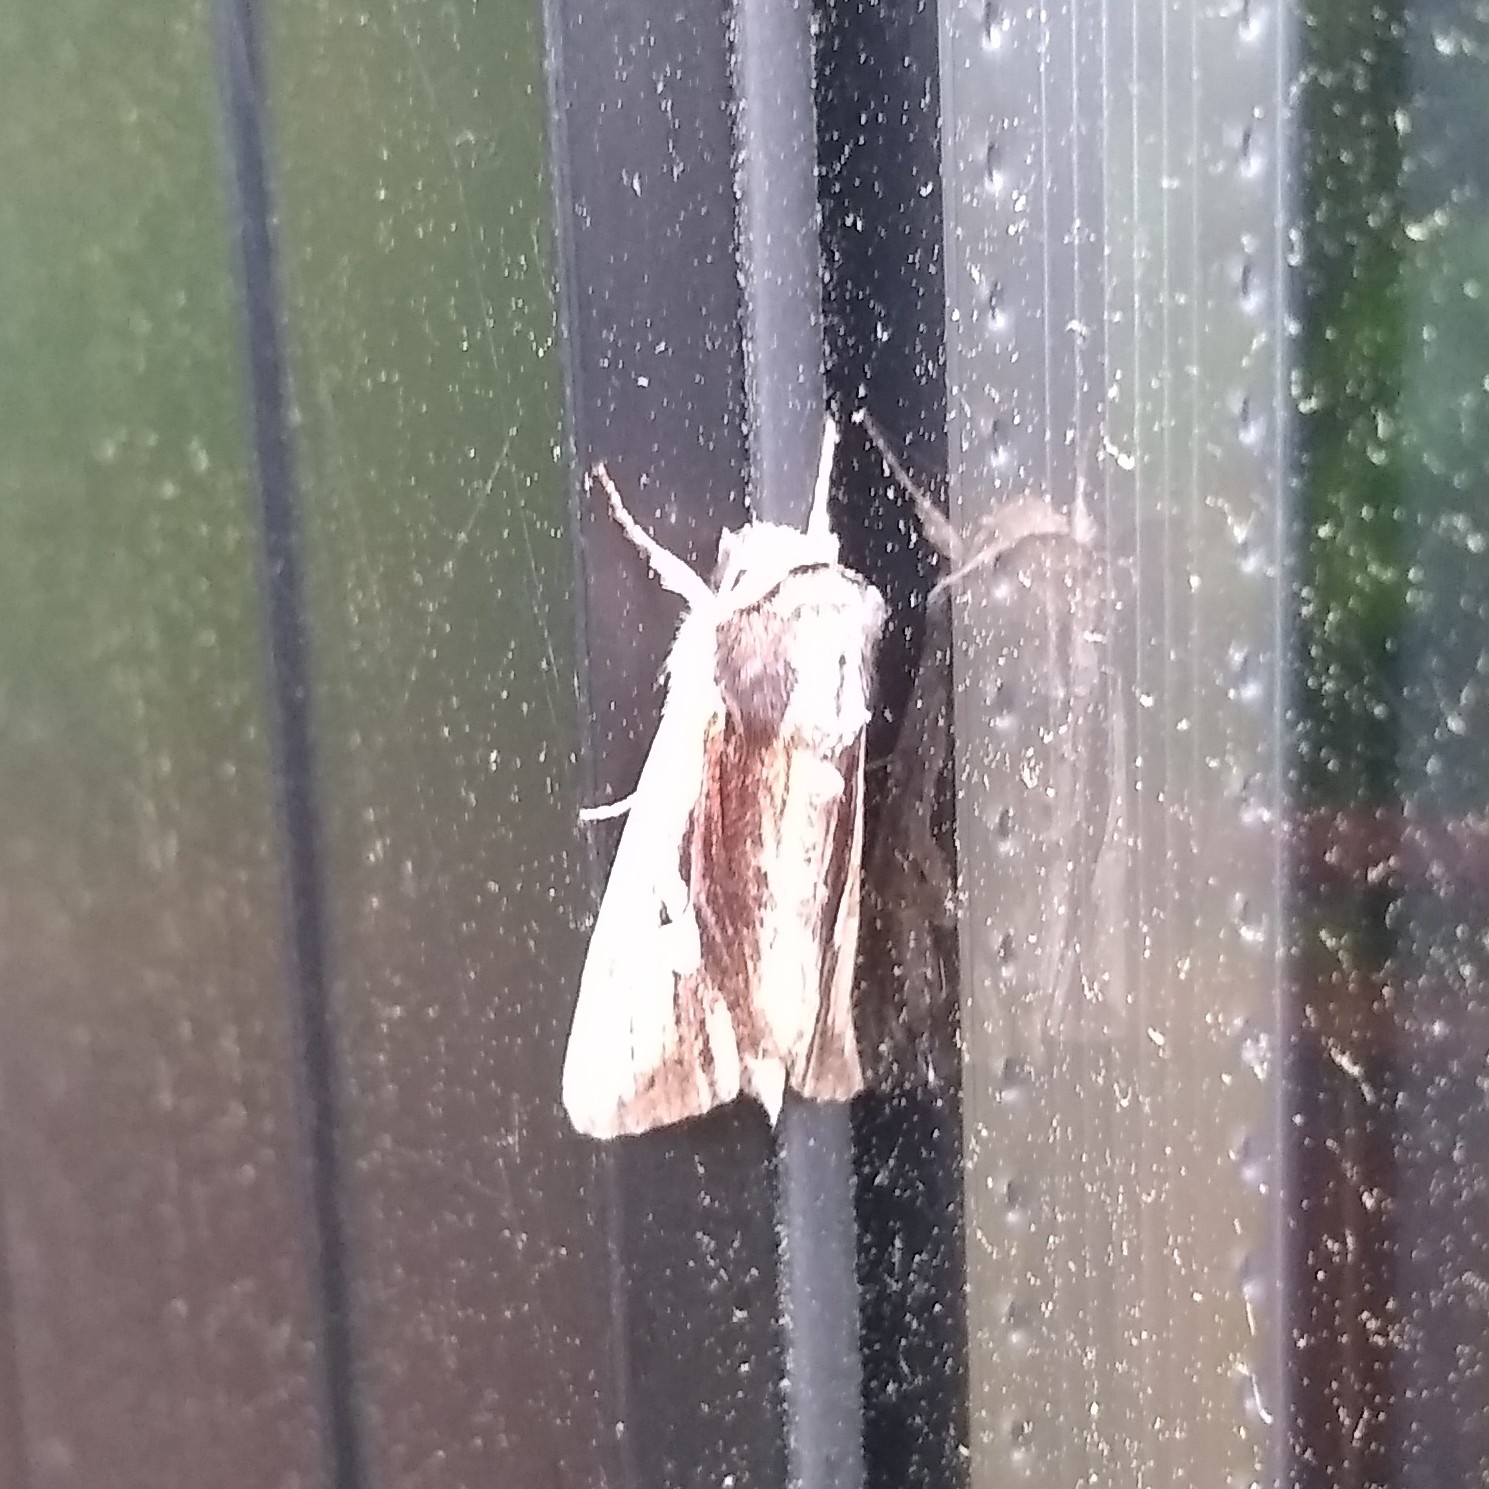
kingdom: Animalia
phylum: Arthropoda
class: Insecta
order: Lepidoptera
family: Noctuidae
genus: Achatia
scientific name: Achatia evicta
